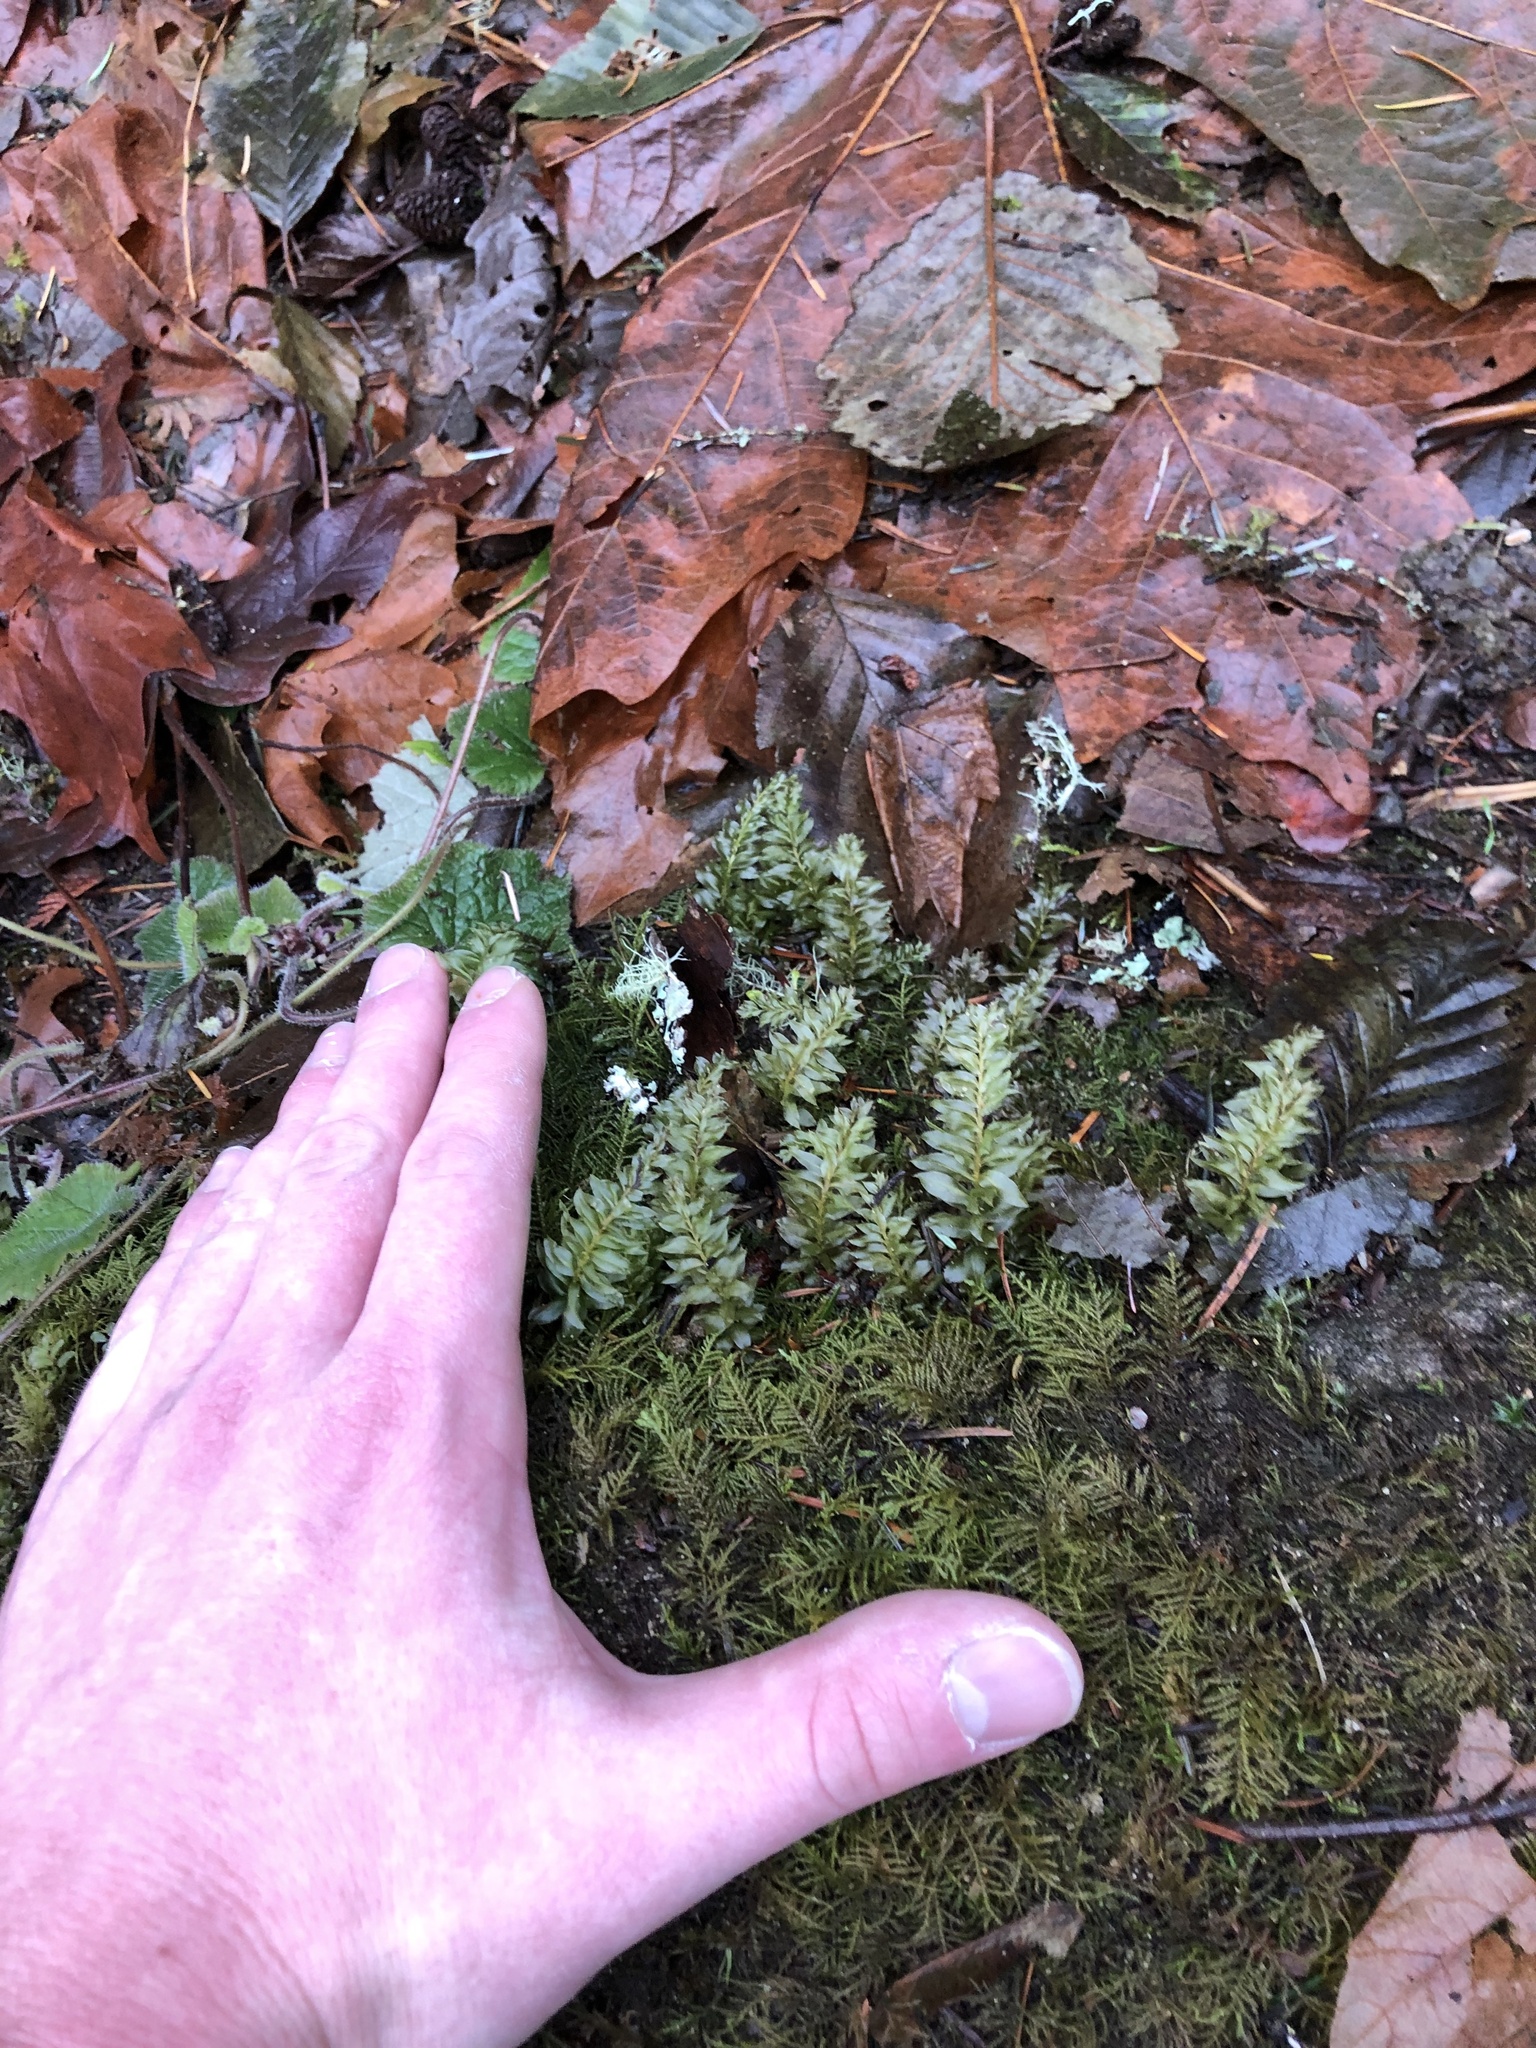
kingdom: Plantae
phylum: Bryophyta
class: Bryopsida
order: Bryales
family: Mniaceae
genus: Plagiomnium
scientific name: Plagiomnium insigne
